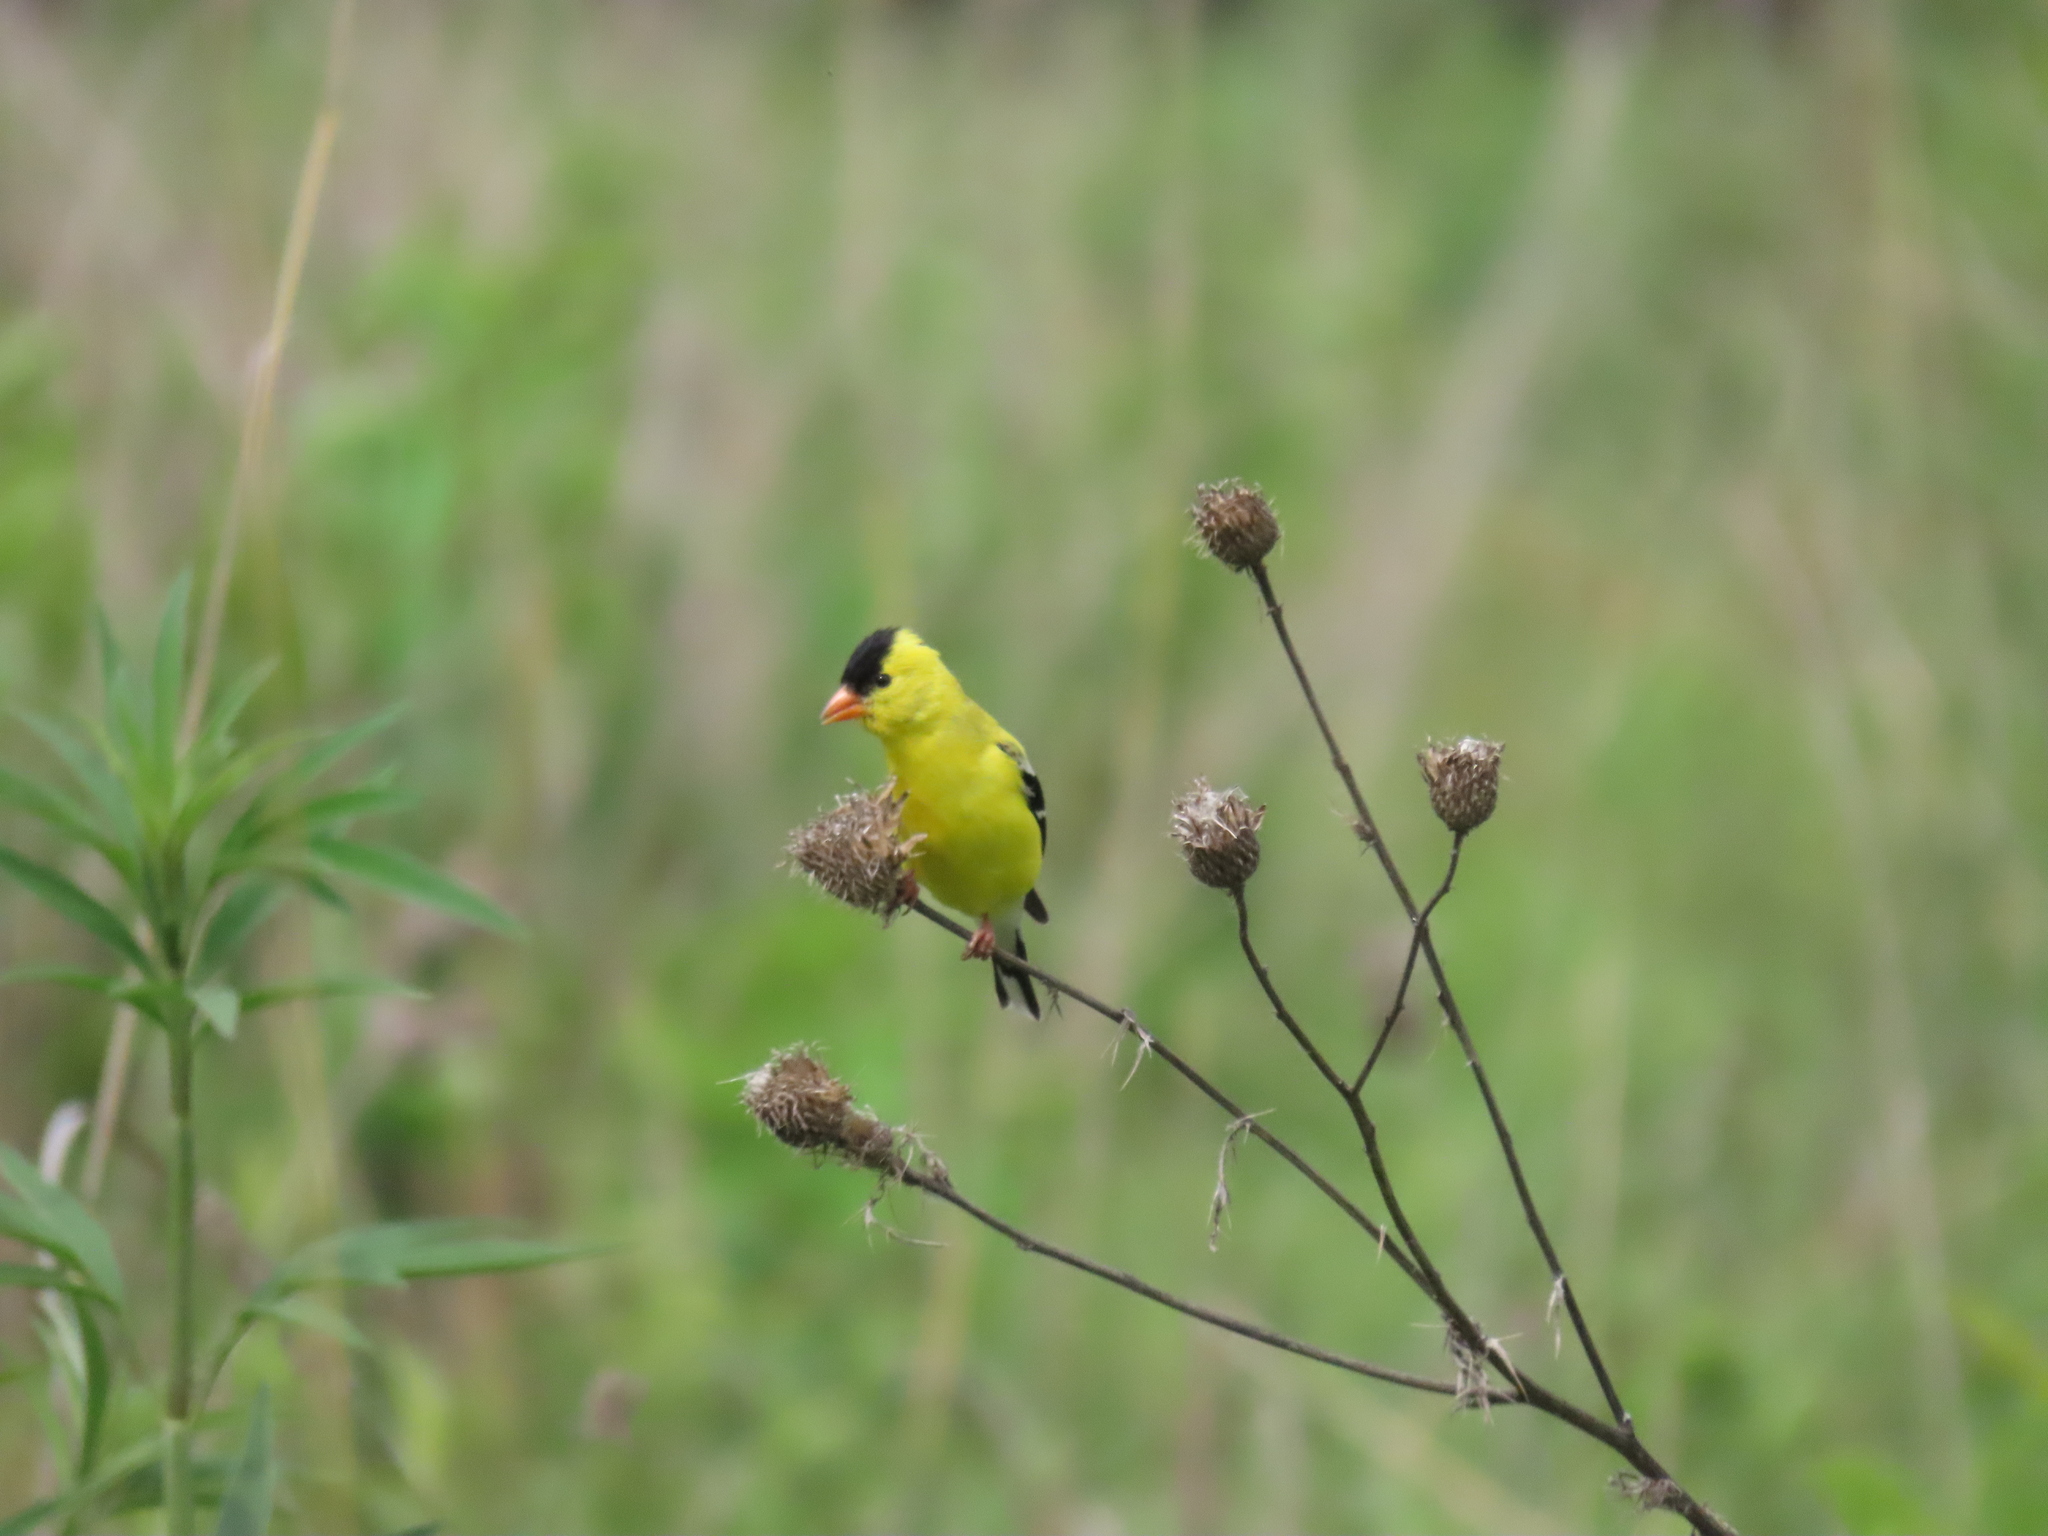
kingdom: Animalia
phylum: Chordata
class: Aves
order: Passeriformes
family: Fringillidae
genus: Spinus
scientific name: Spinus tristis
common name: American goldfinch
